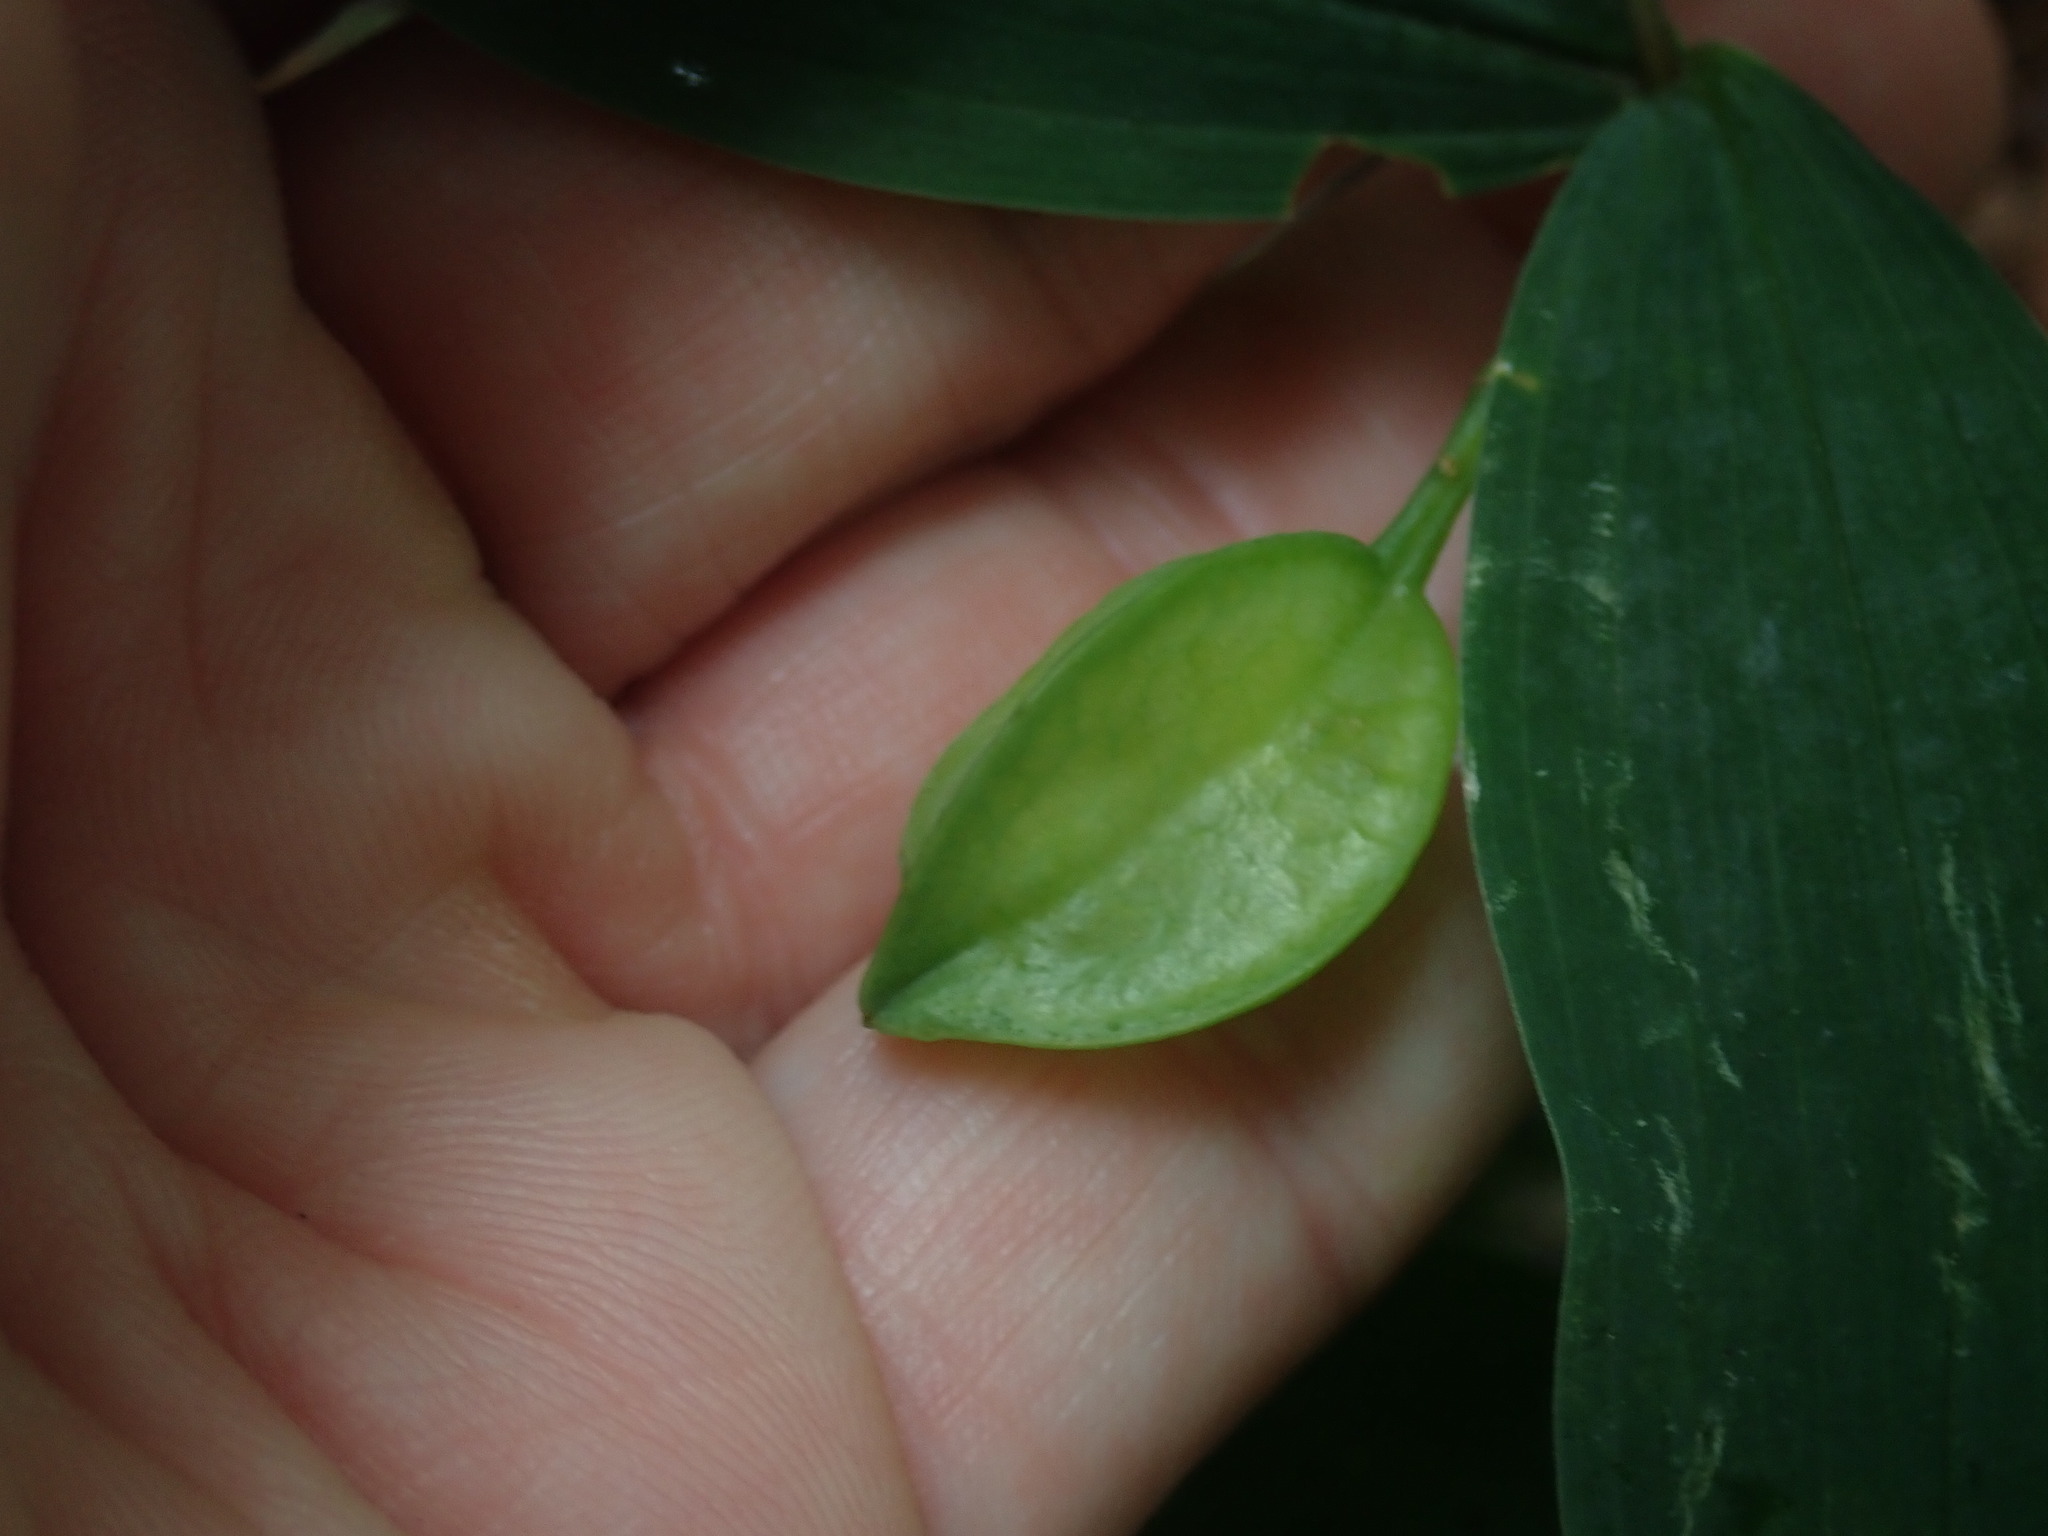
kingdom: Plantae
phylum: Tracheophyta
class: Liliopsida
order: Liliales
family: Colchicaceae
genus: Uvularia
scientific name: Uvularia sessilifolia
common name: Straw-lily
